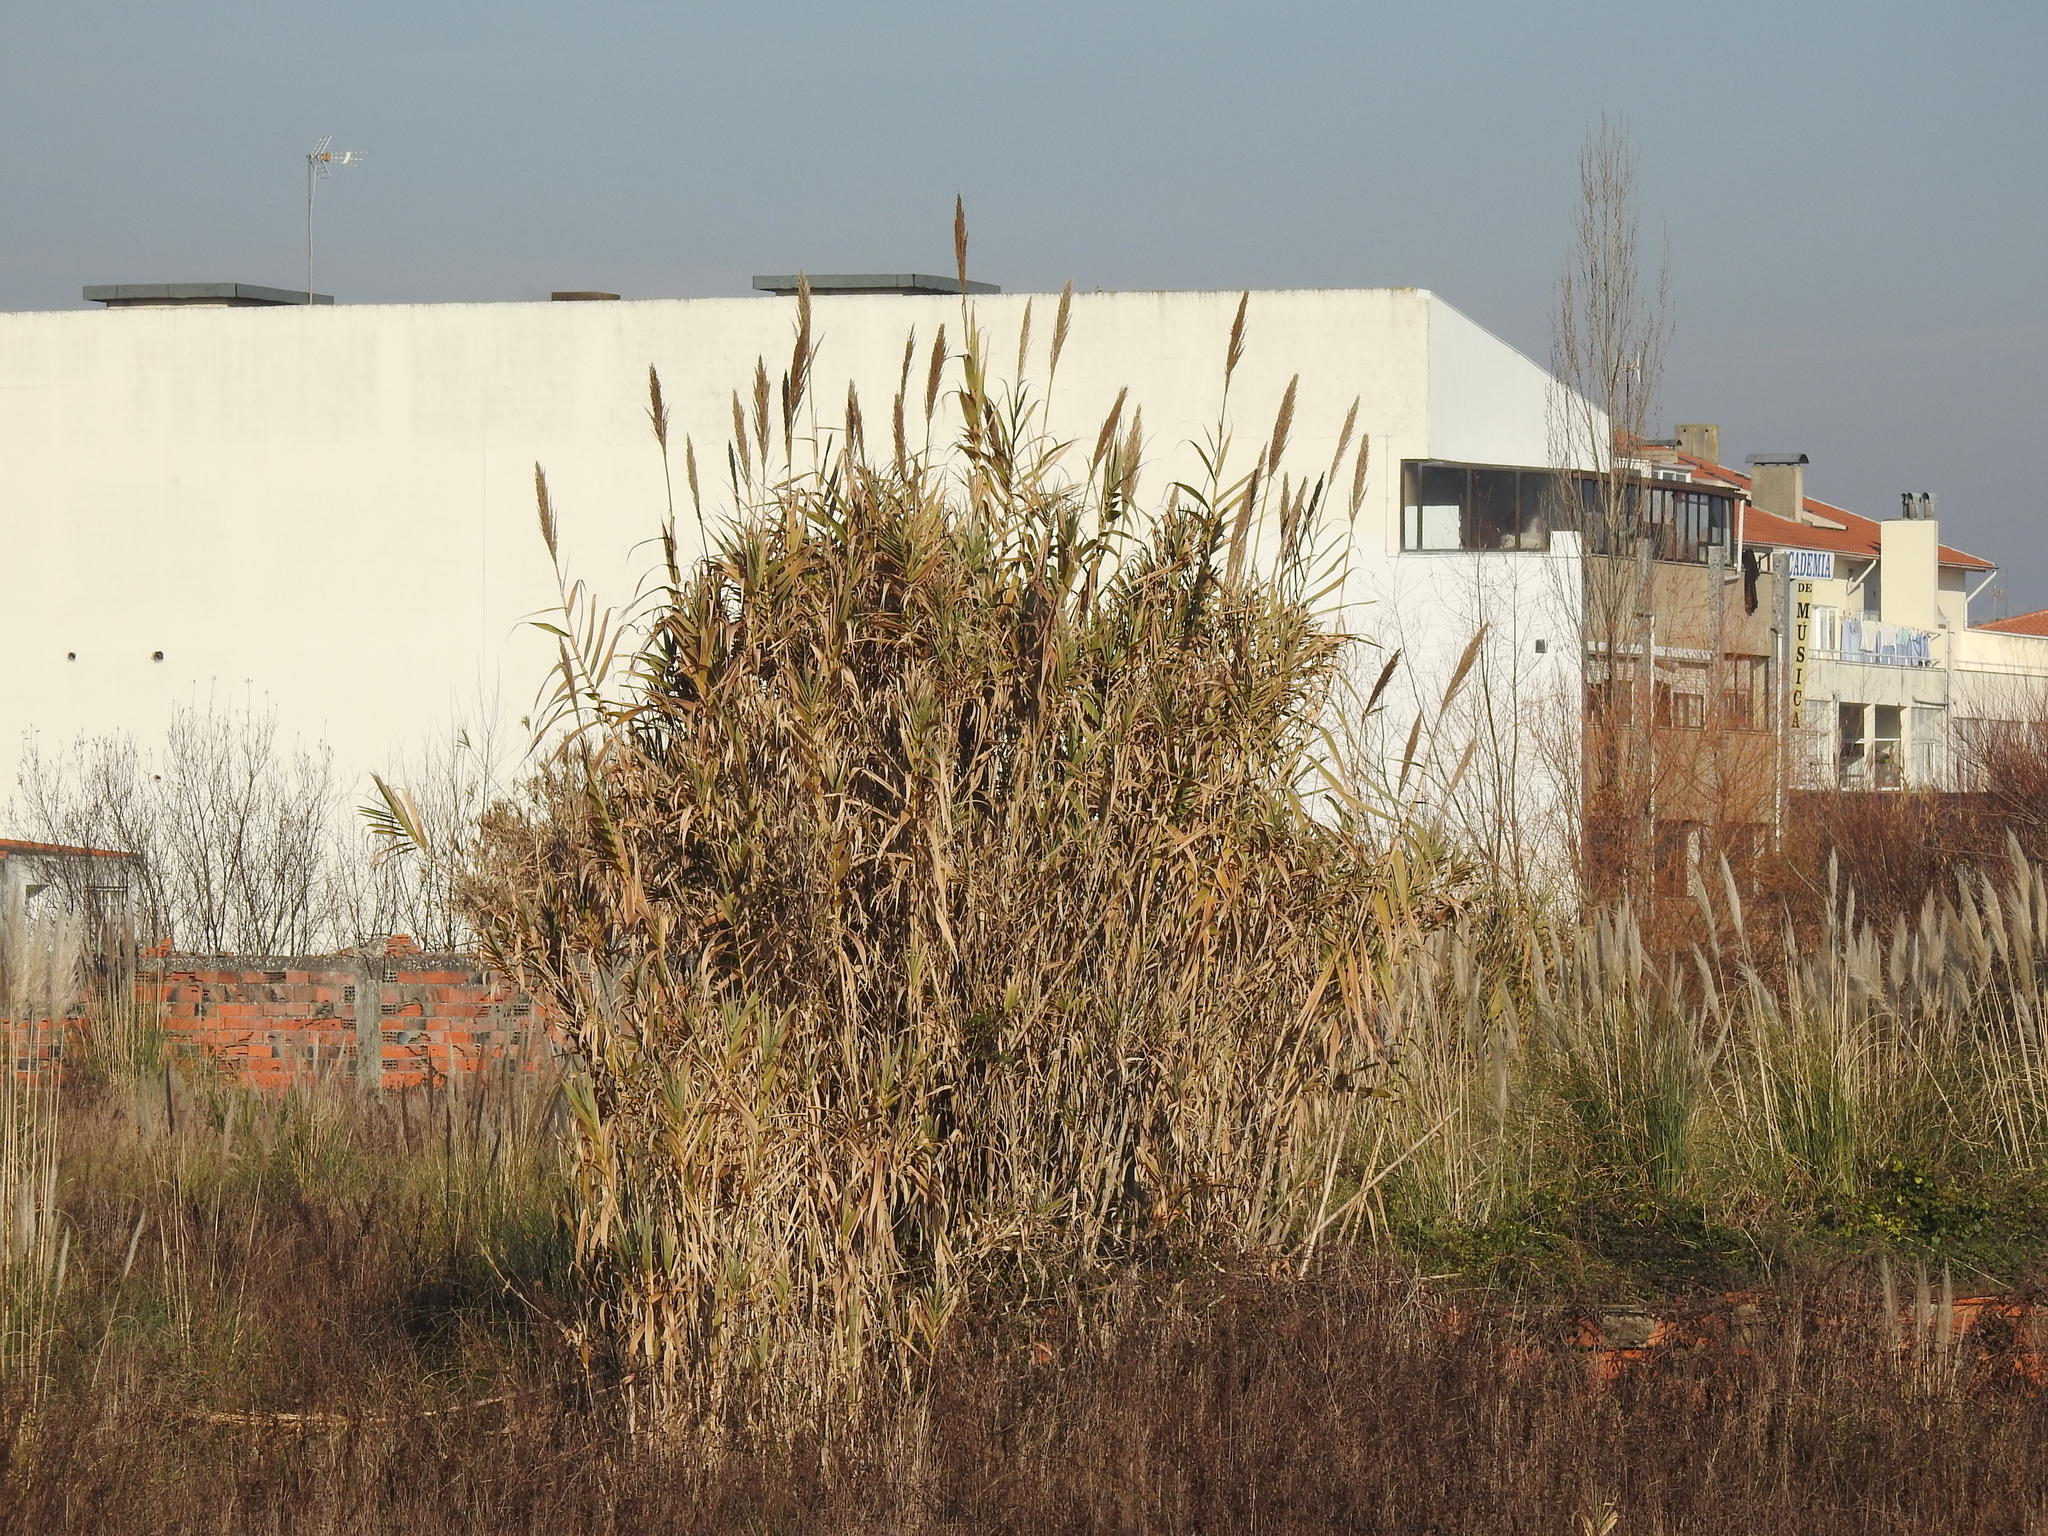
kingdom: Plantae
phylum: Tracheophyta
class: Liliopsida
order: Poales
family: Poaceae
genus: Arundo
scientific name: Arundo donax
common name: Giant reed
